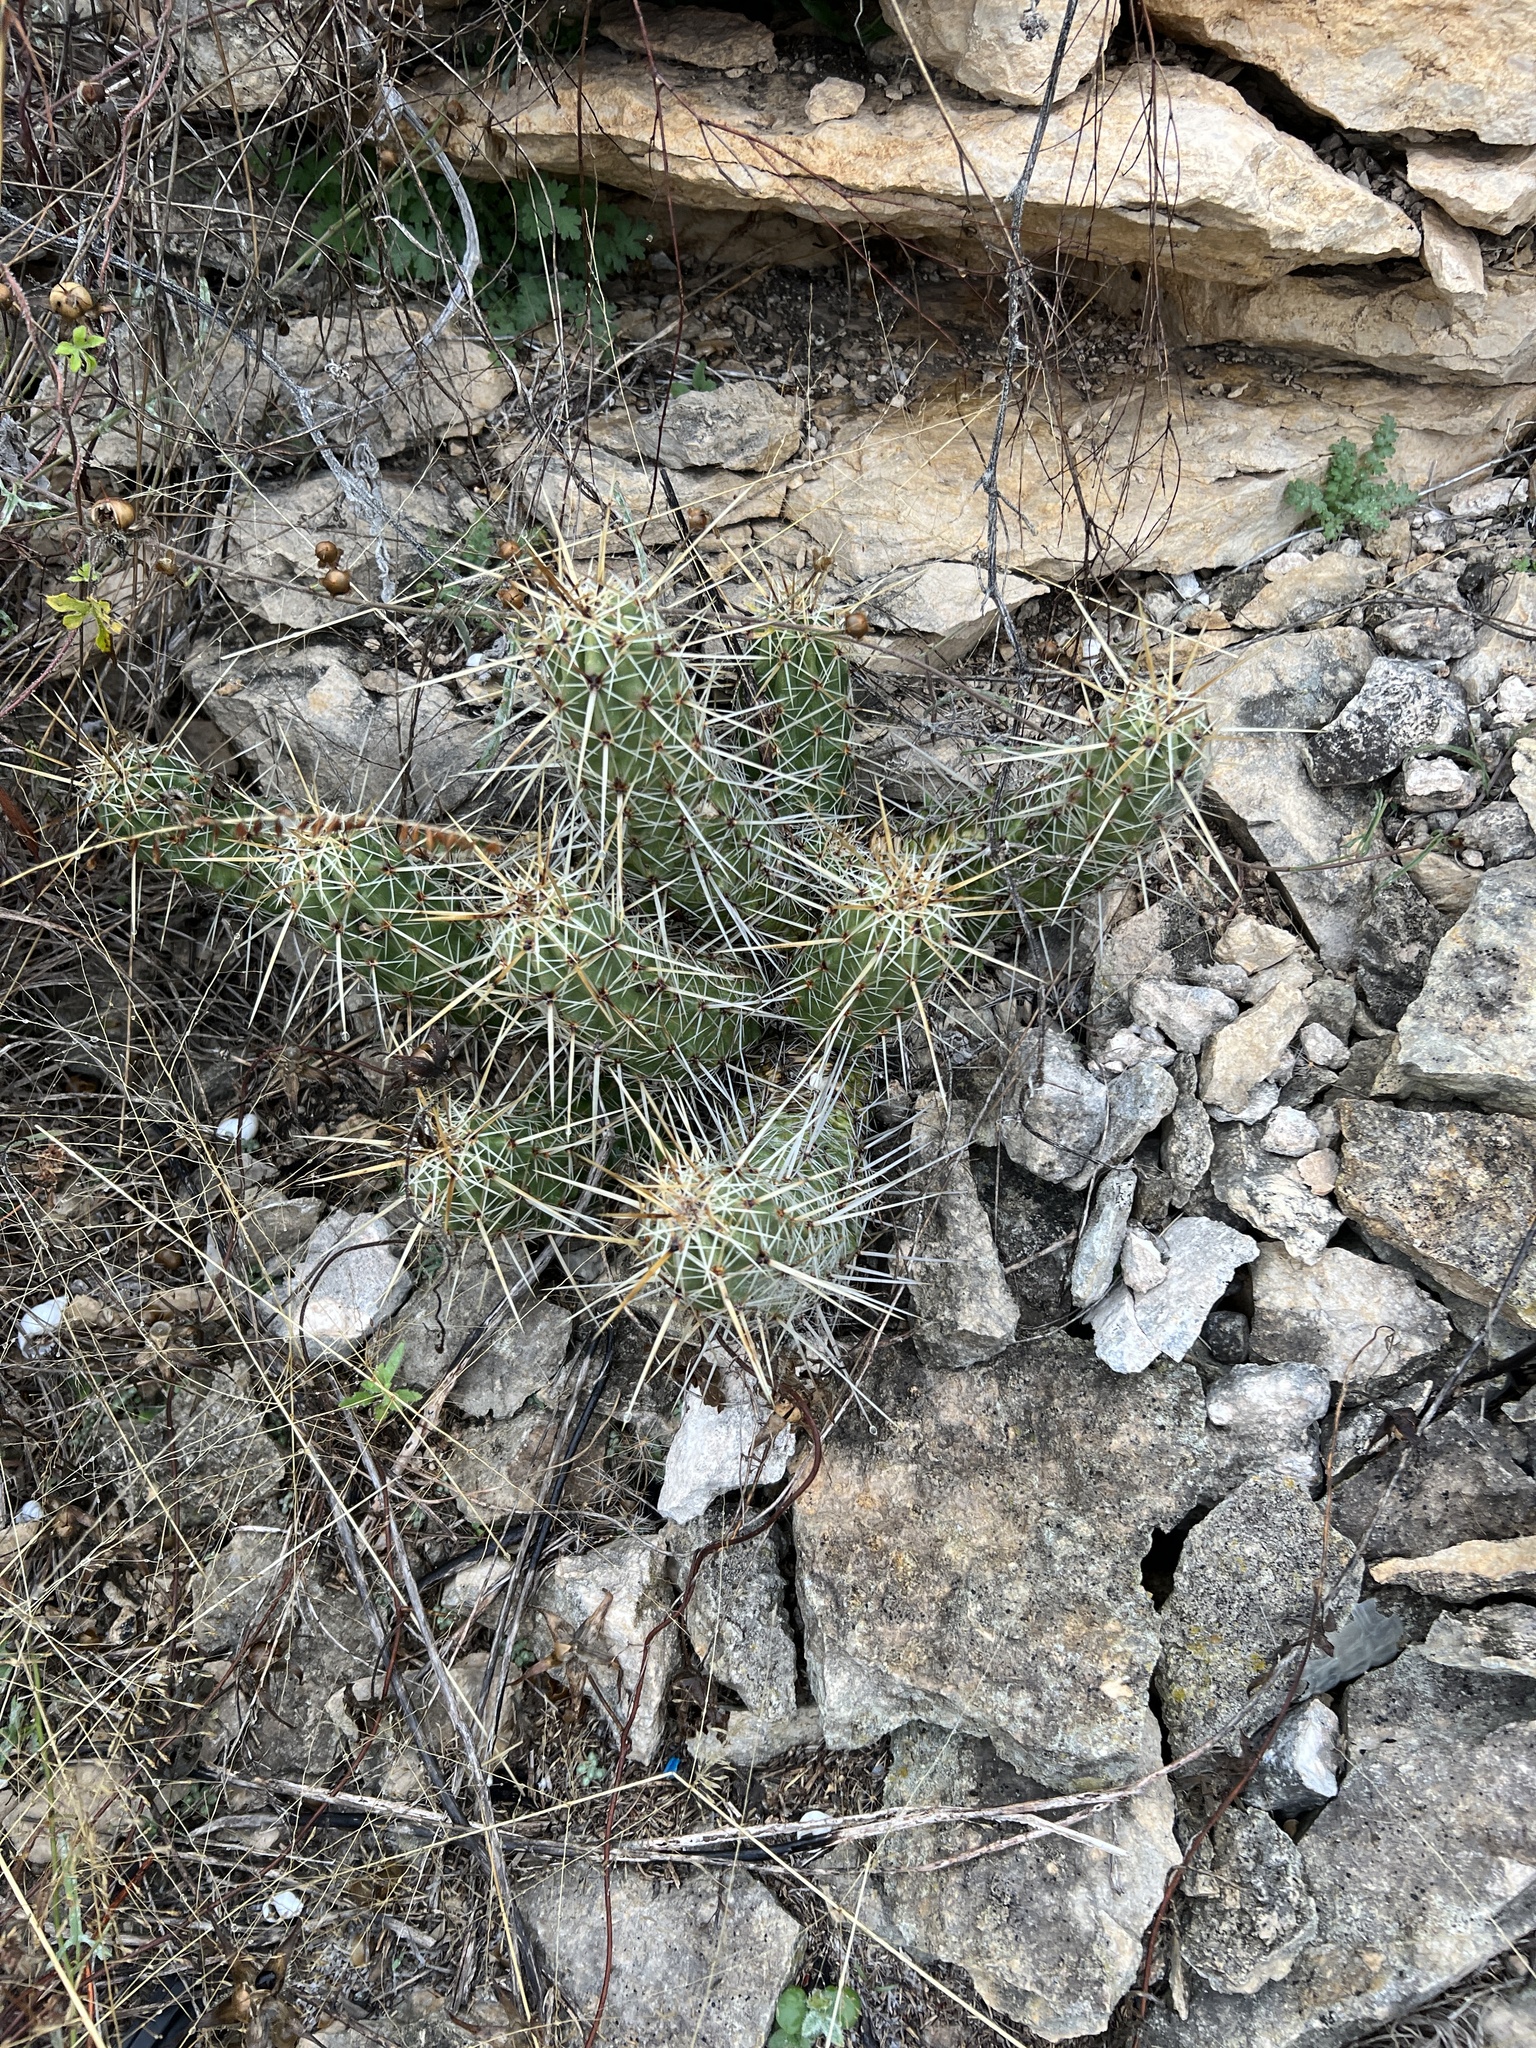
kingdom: Plantae
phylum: Tracheophyta
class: Magnoliopsida
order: Caryophyllales
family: Cactaceae
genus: Echinocereus
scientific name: Echinocereus enneacanthus
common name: Pitaya
